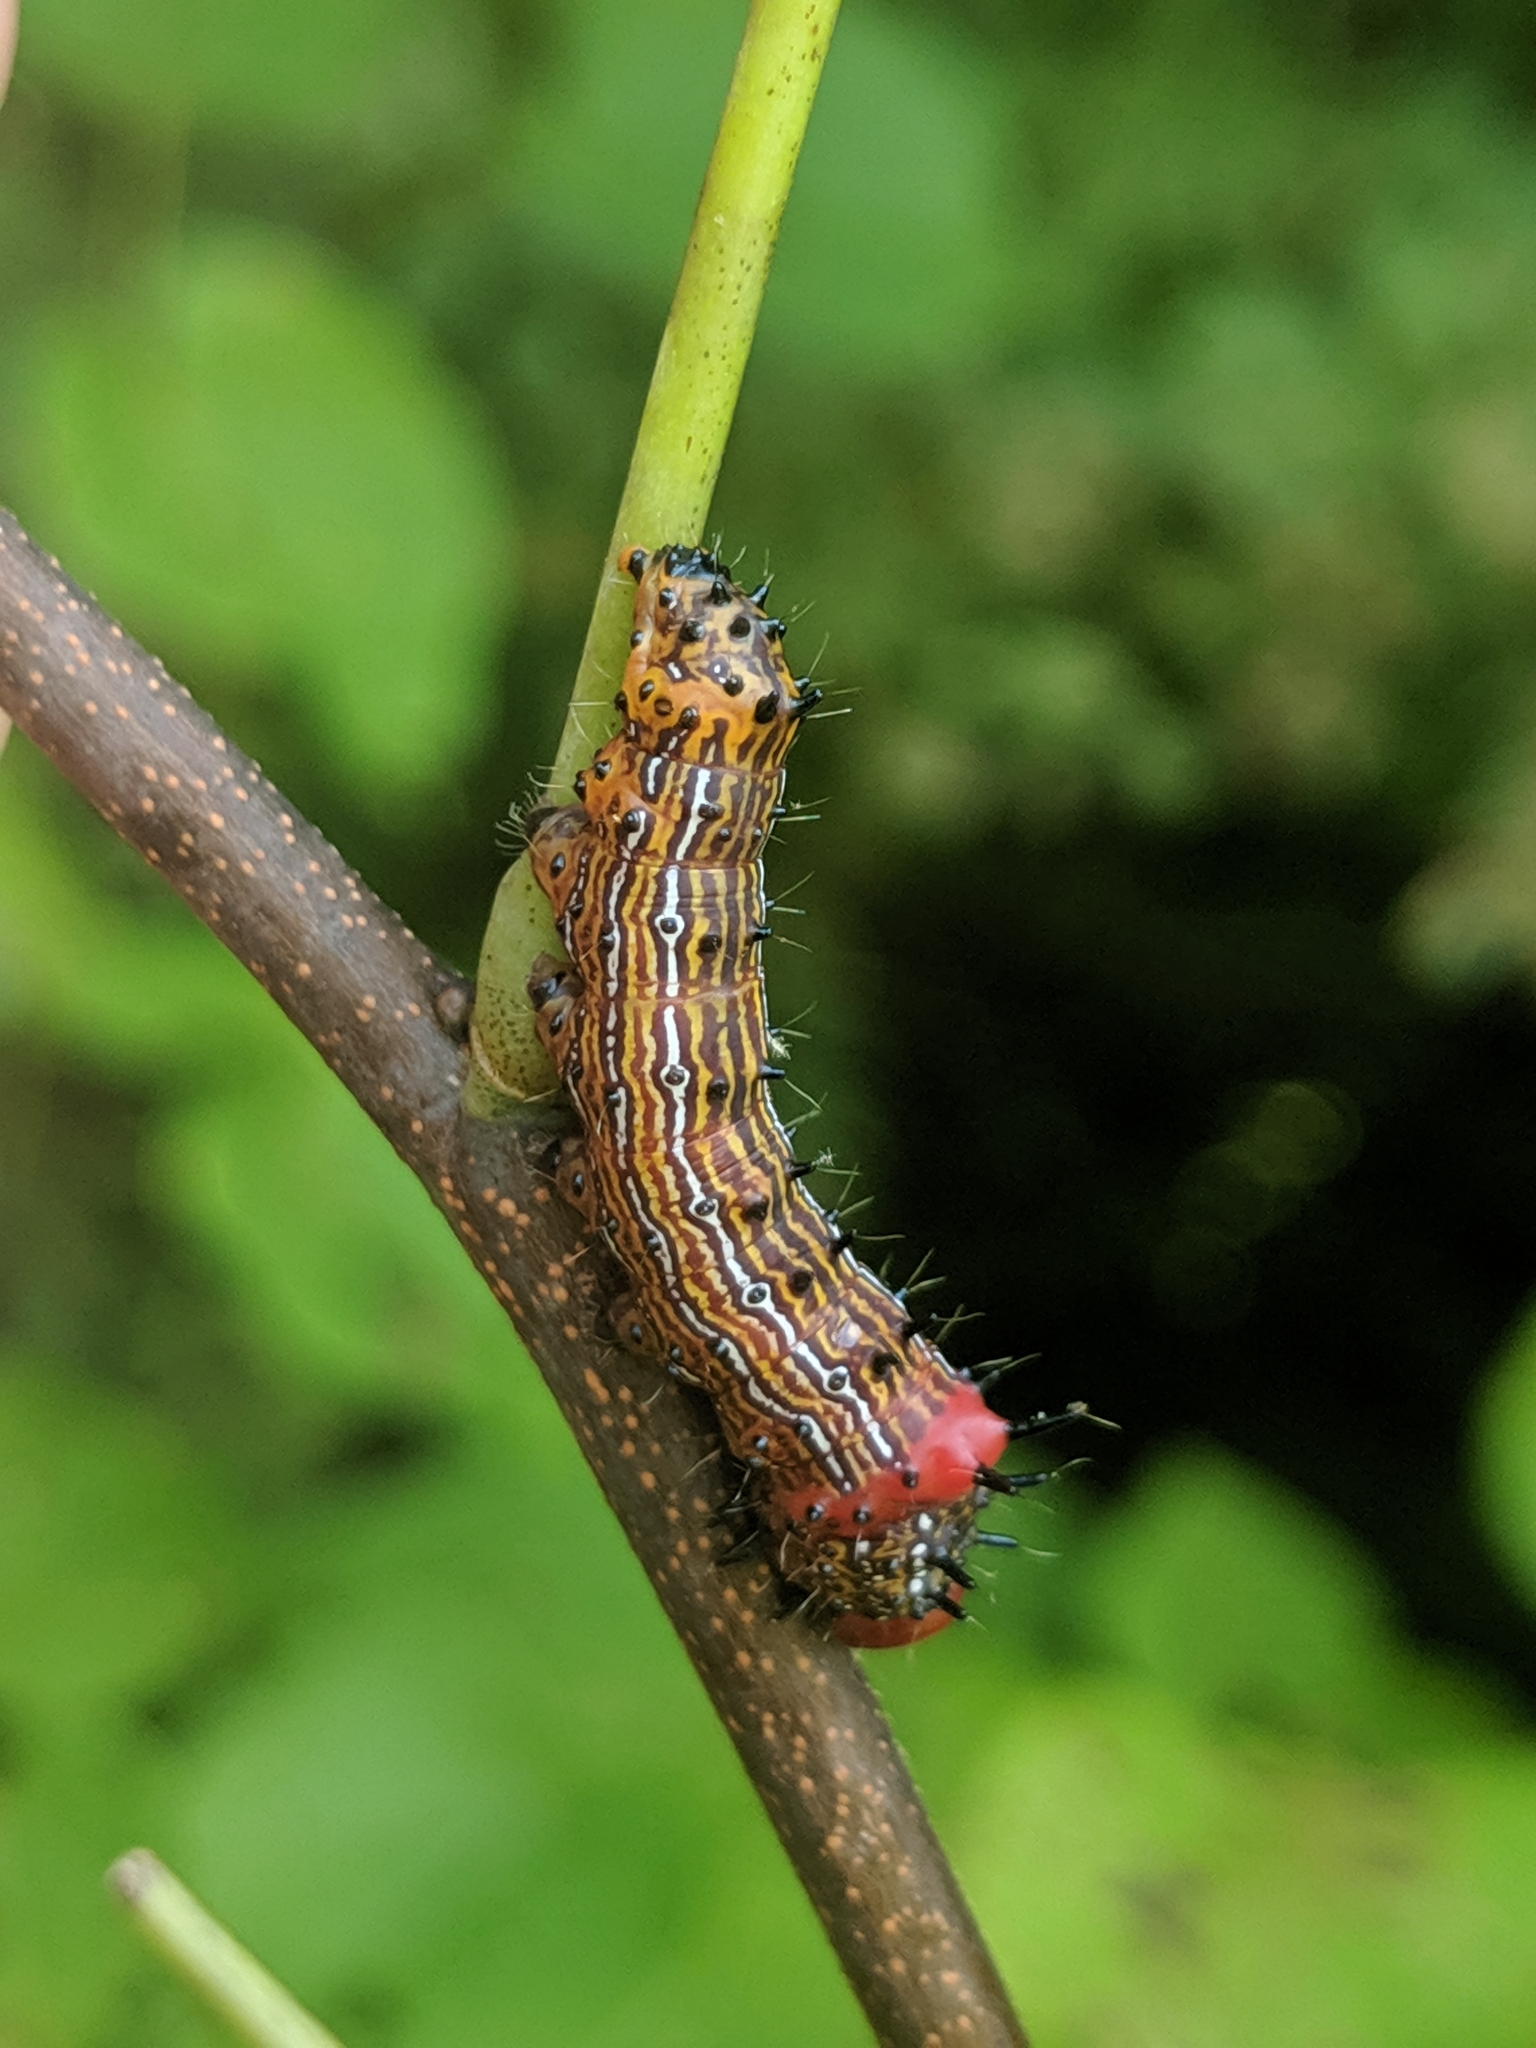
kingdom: Animalia
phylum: Arthropoda
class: Insecta
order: Lepidoptera
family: Notodontidae
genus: Schizura
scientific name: Schizura
